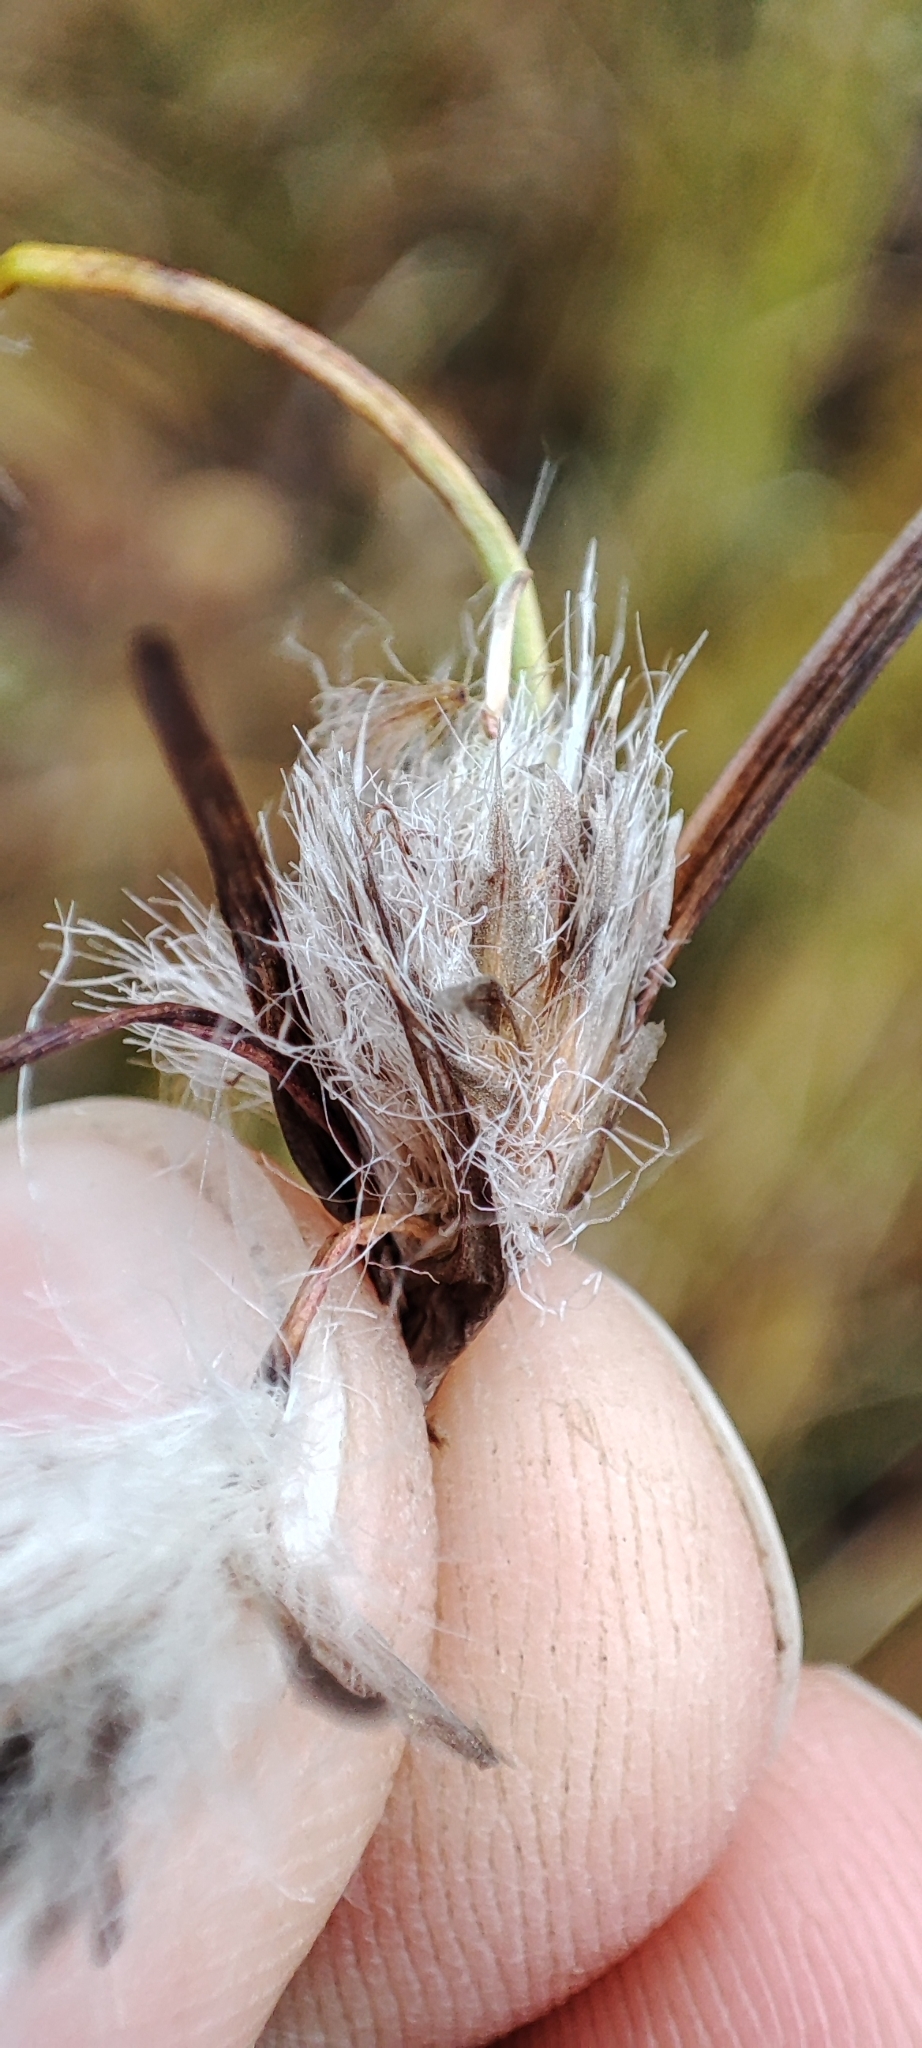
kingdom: Plantae
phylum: Tracheophyta
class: Liliopsida
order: Poales
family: Cyperaceae
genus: Eriophorum
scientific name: Eriophorum angustifolium
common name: Common cottongrass
